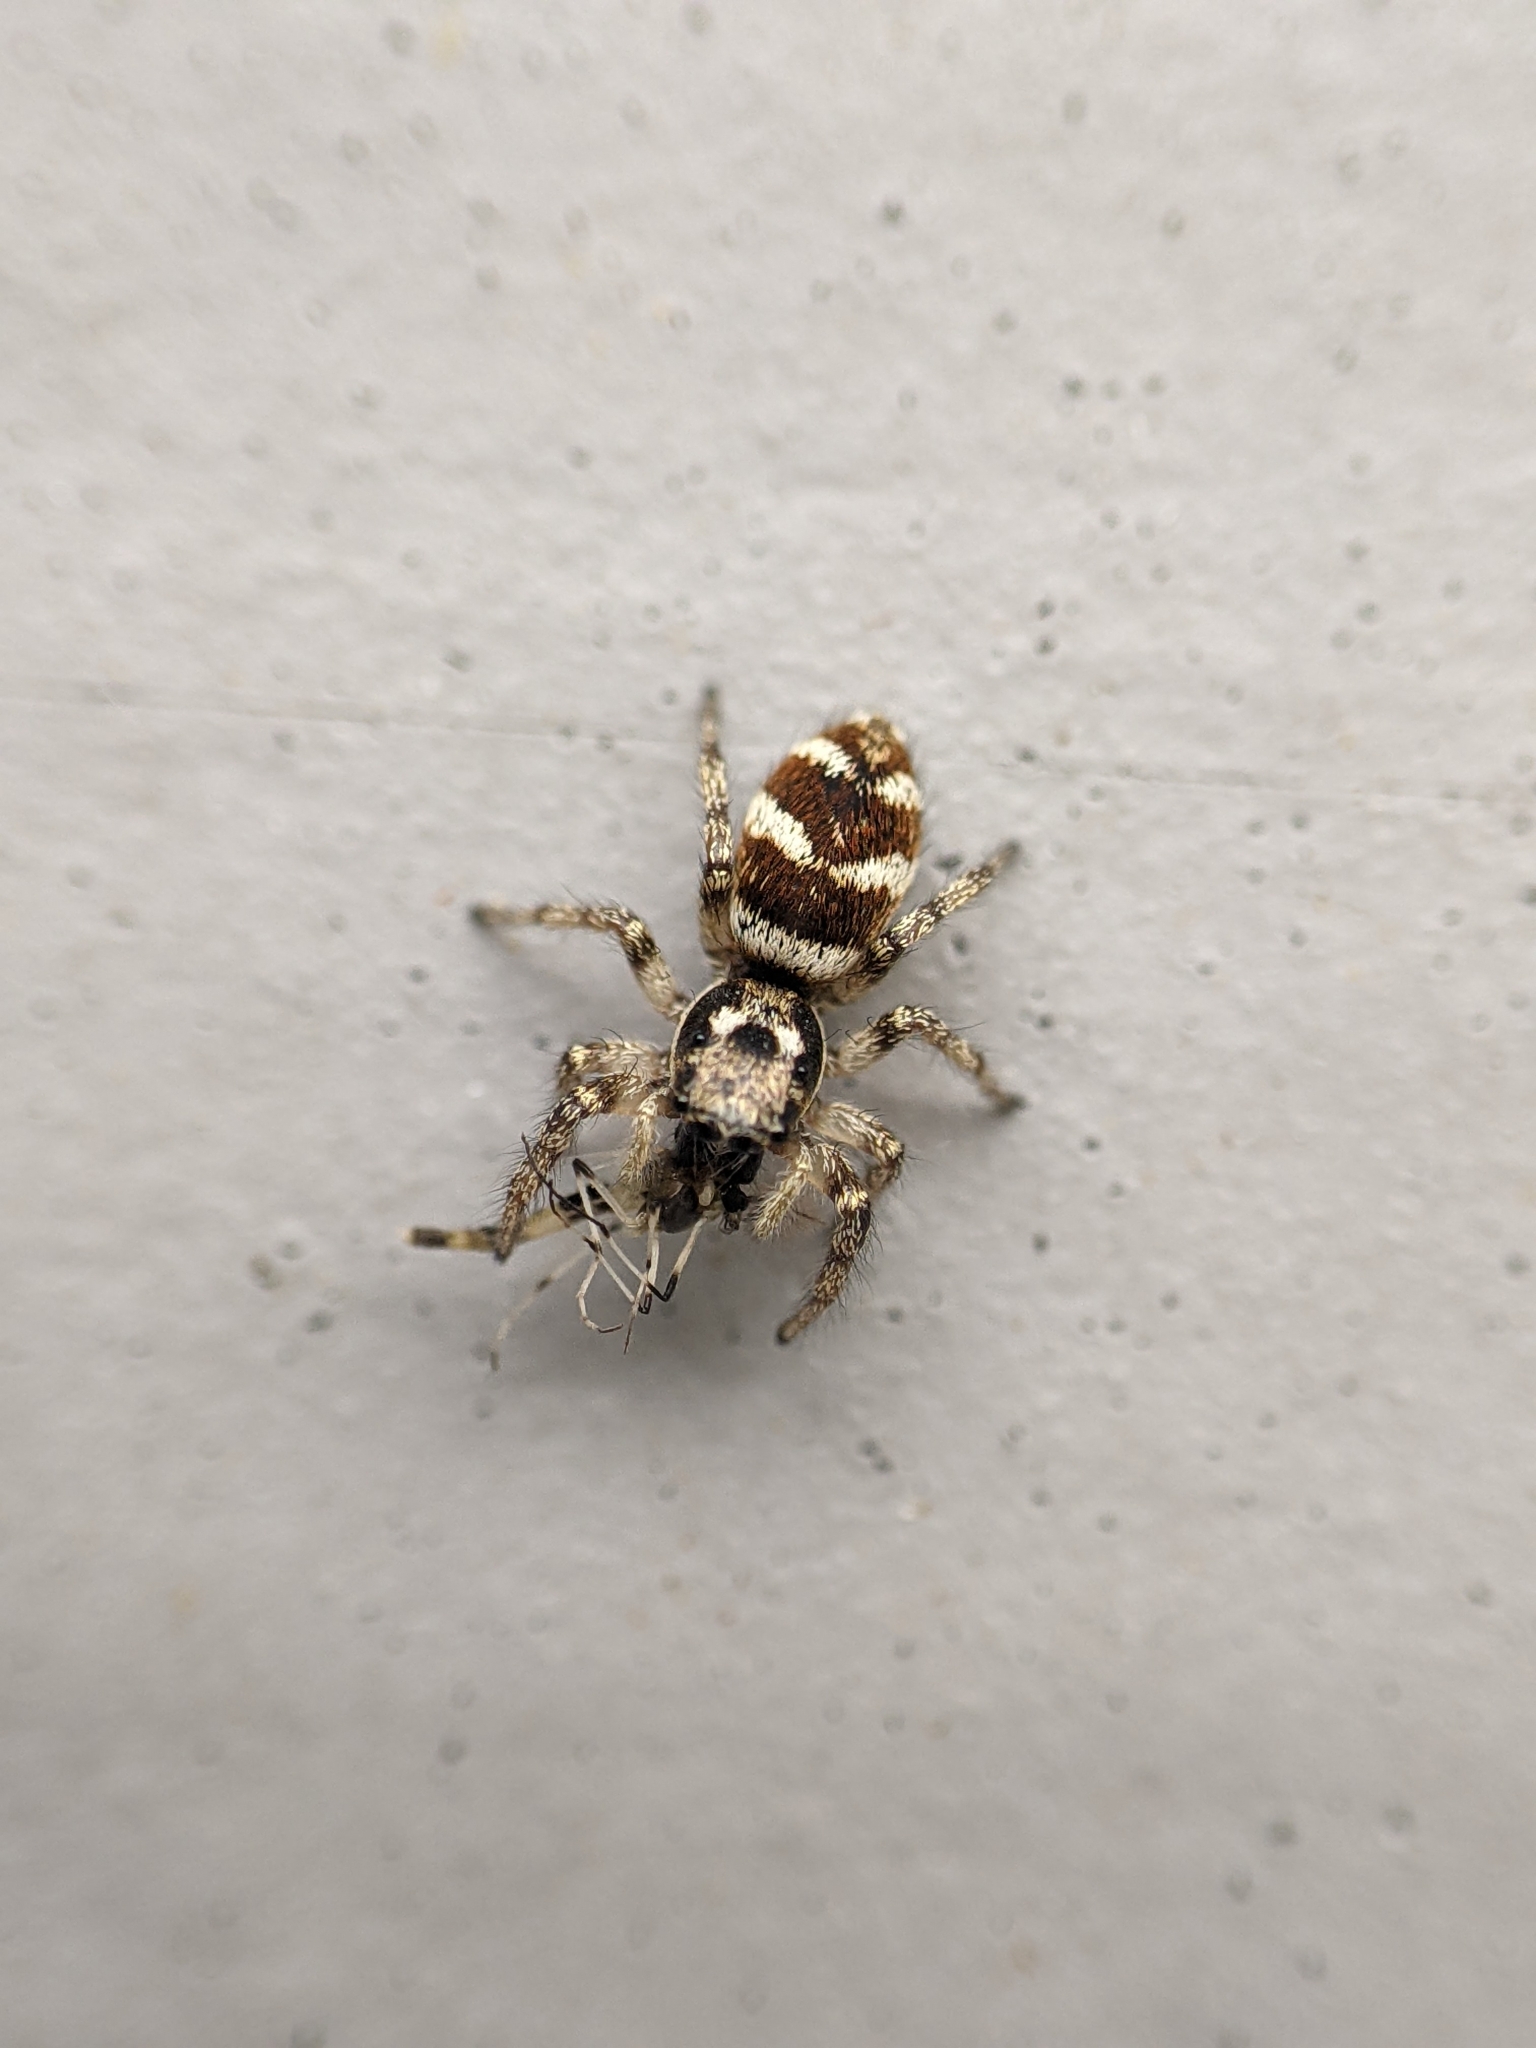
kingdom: Animalia
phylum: Arthropoda
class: Arachnida
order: Araneae
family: Salticidae
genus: Salticus
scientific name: Salticus scenicus
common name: Zebra jumper
